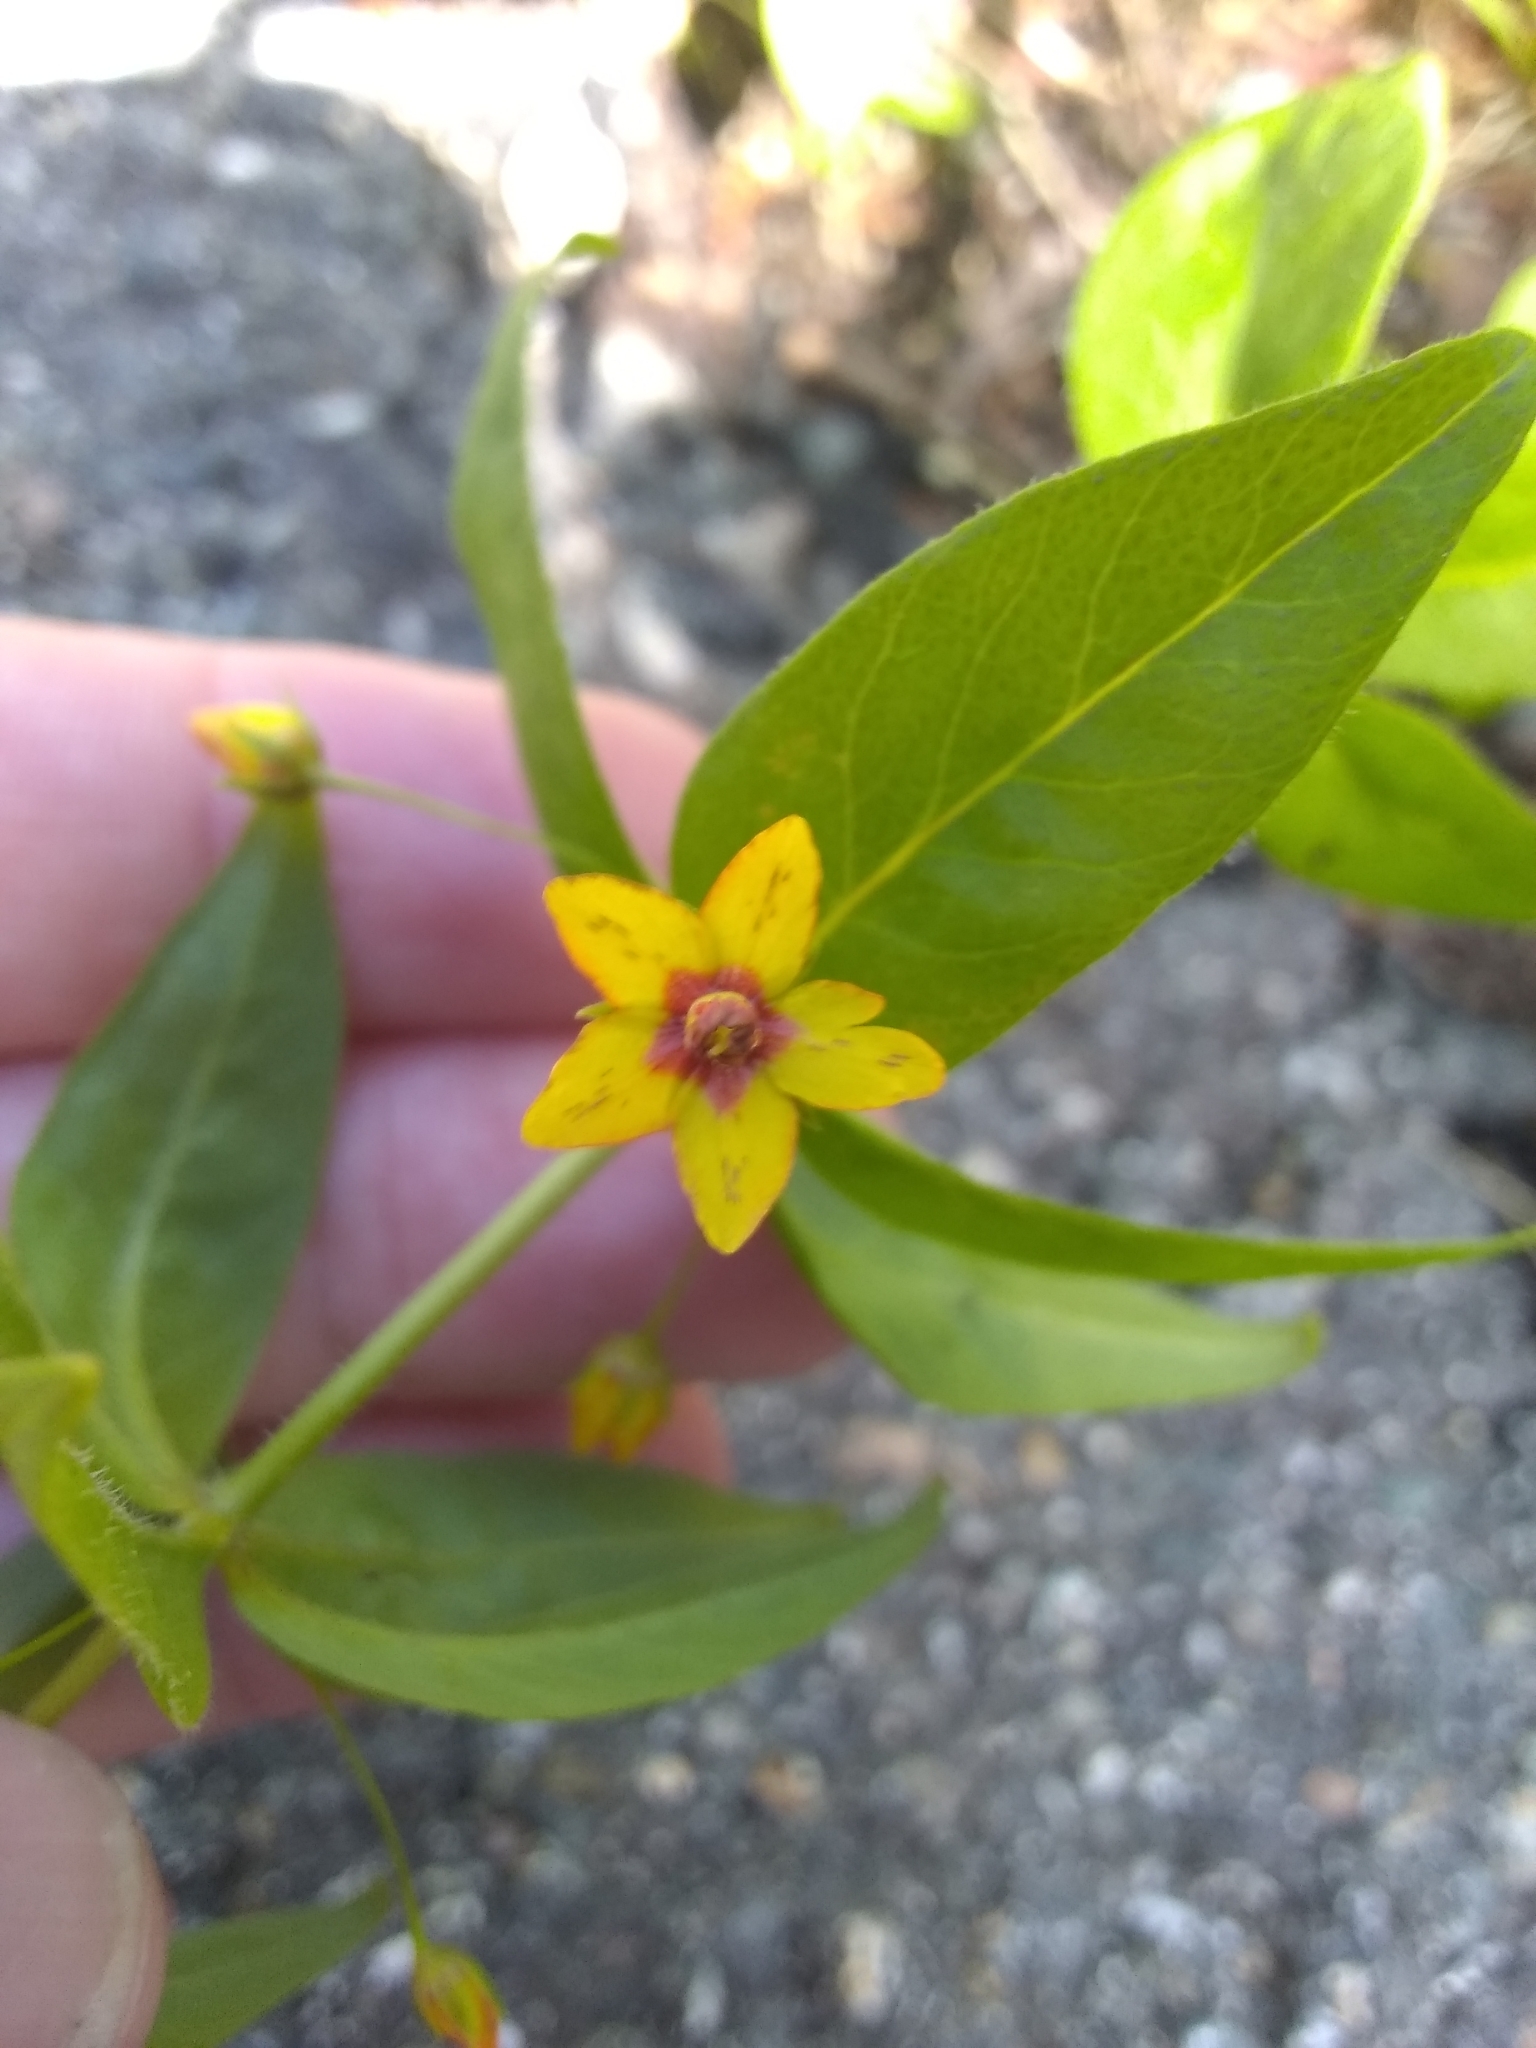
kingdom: Plantae
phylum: Tracheophyta
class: Magnoliopsida
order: Ericales
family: Primulaceae
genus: Lysimachia
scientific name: Lysimachia quadrifolia
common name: Whorled loosestrife
